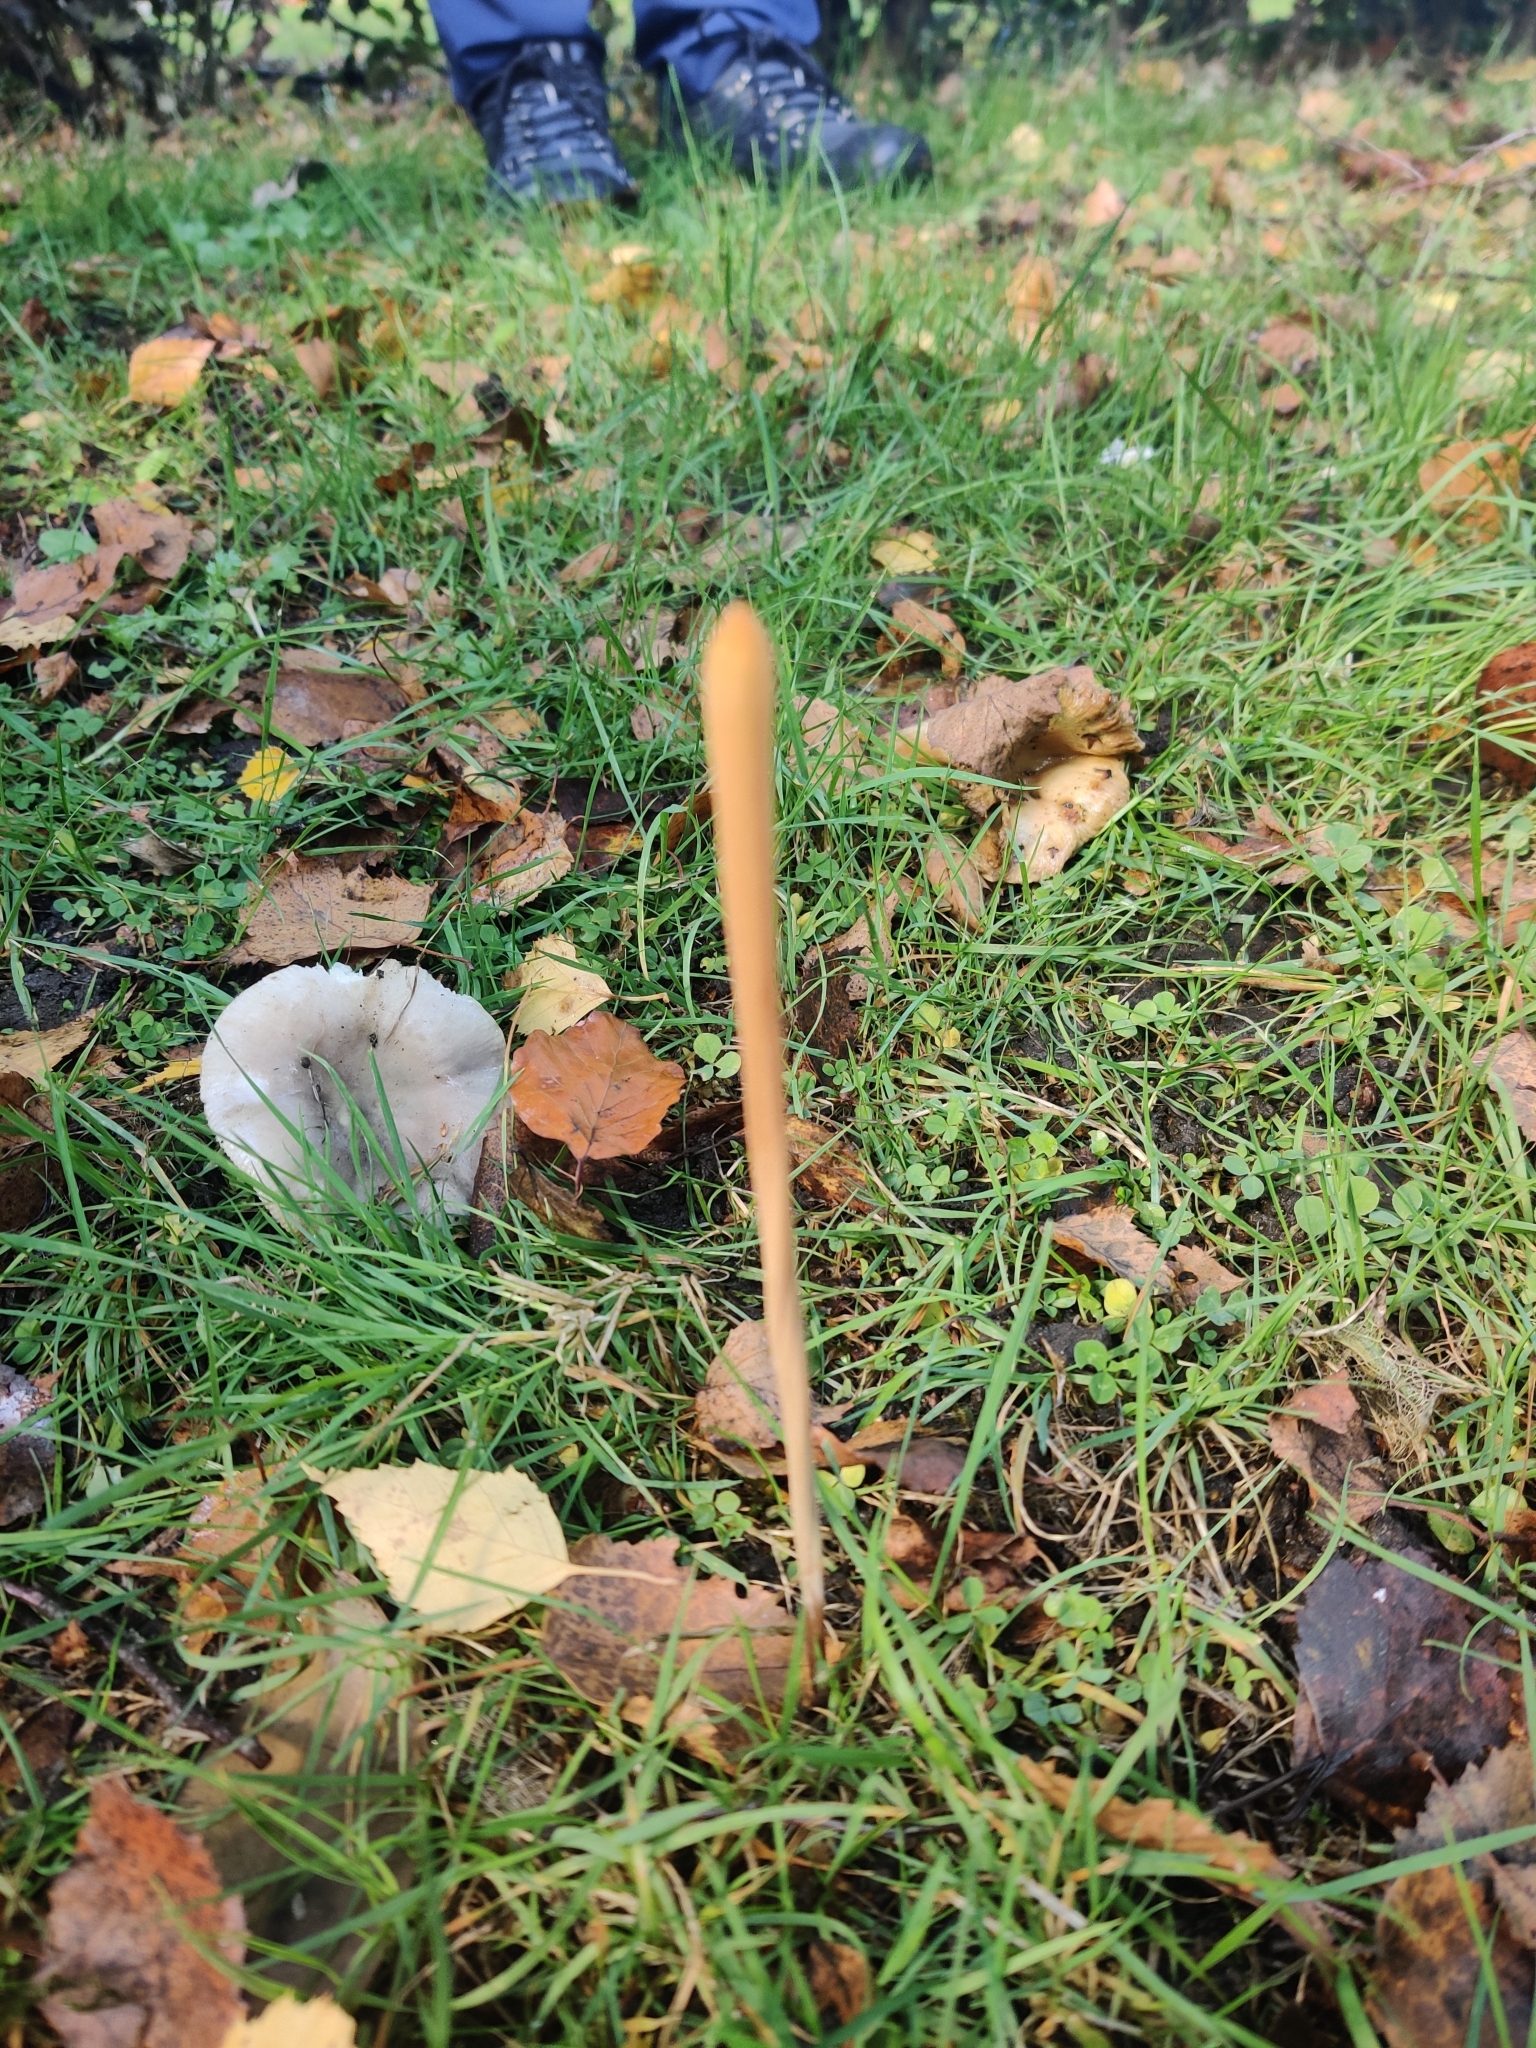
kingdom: Fungi
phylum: Basidiomycota
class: Agaricomycetes
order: Agaricales
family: Typhulaceae
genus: Typhula
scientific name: Typhula fistulosa
